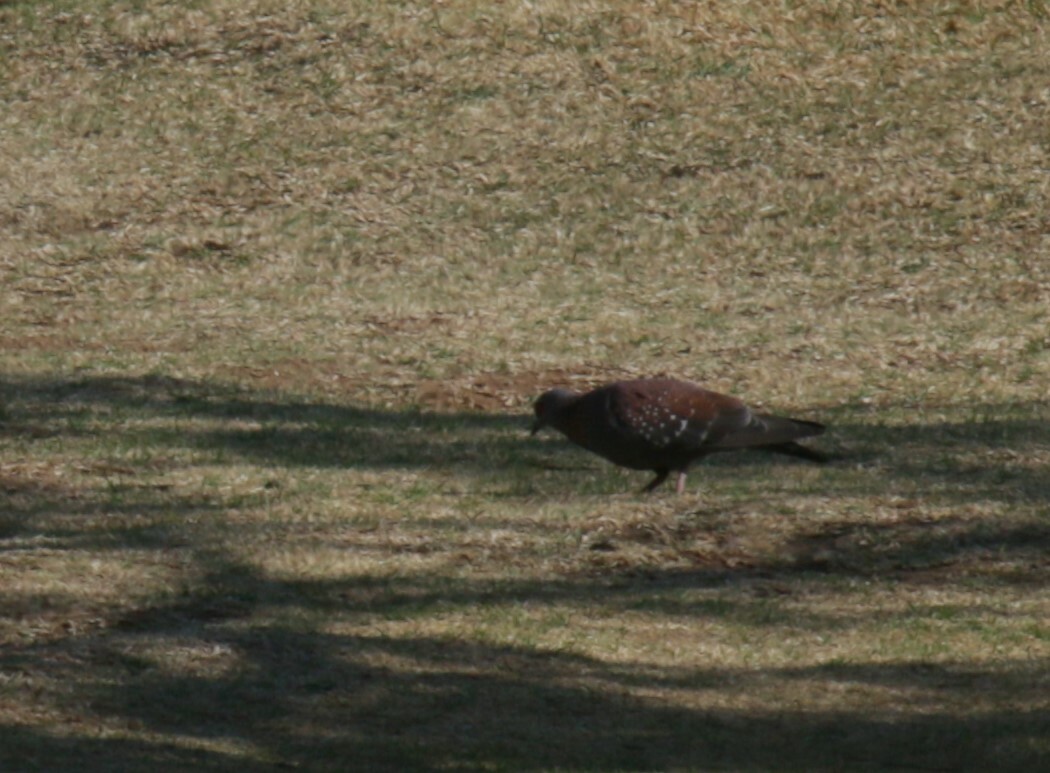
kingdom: Animalia
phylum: Chordata
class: Aves
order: Columbiformes
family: Columbidae
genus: Columba
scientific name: Columba guinea
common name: Speckled pigeon
